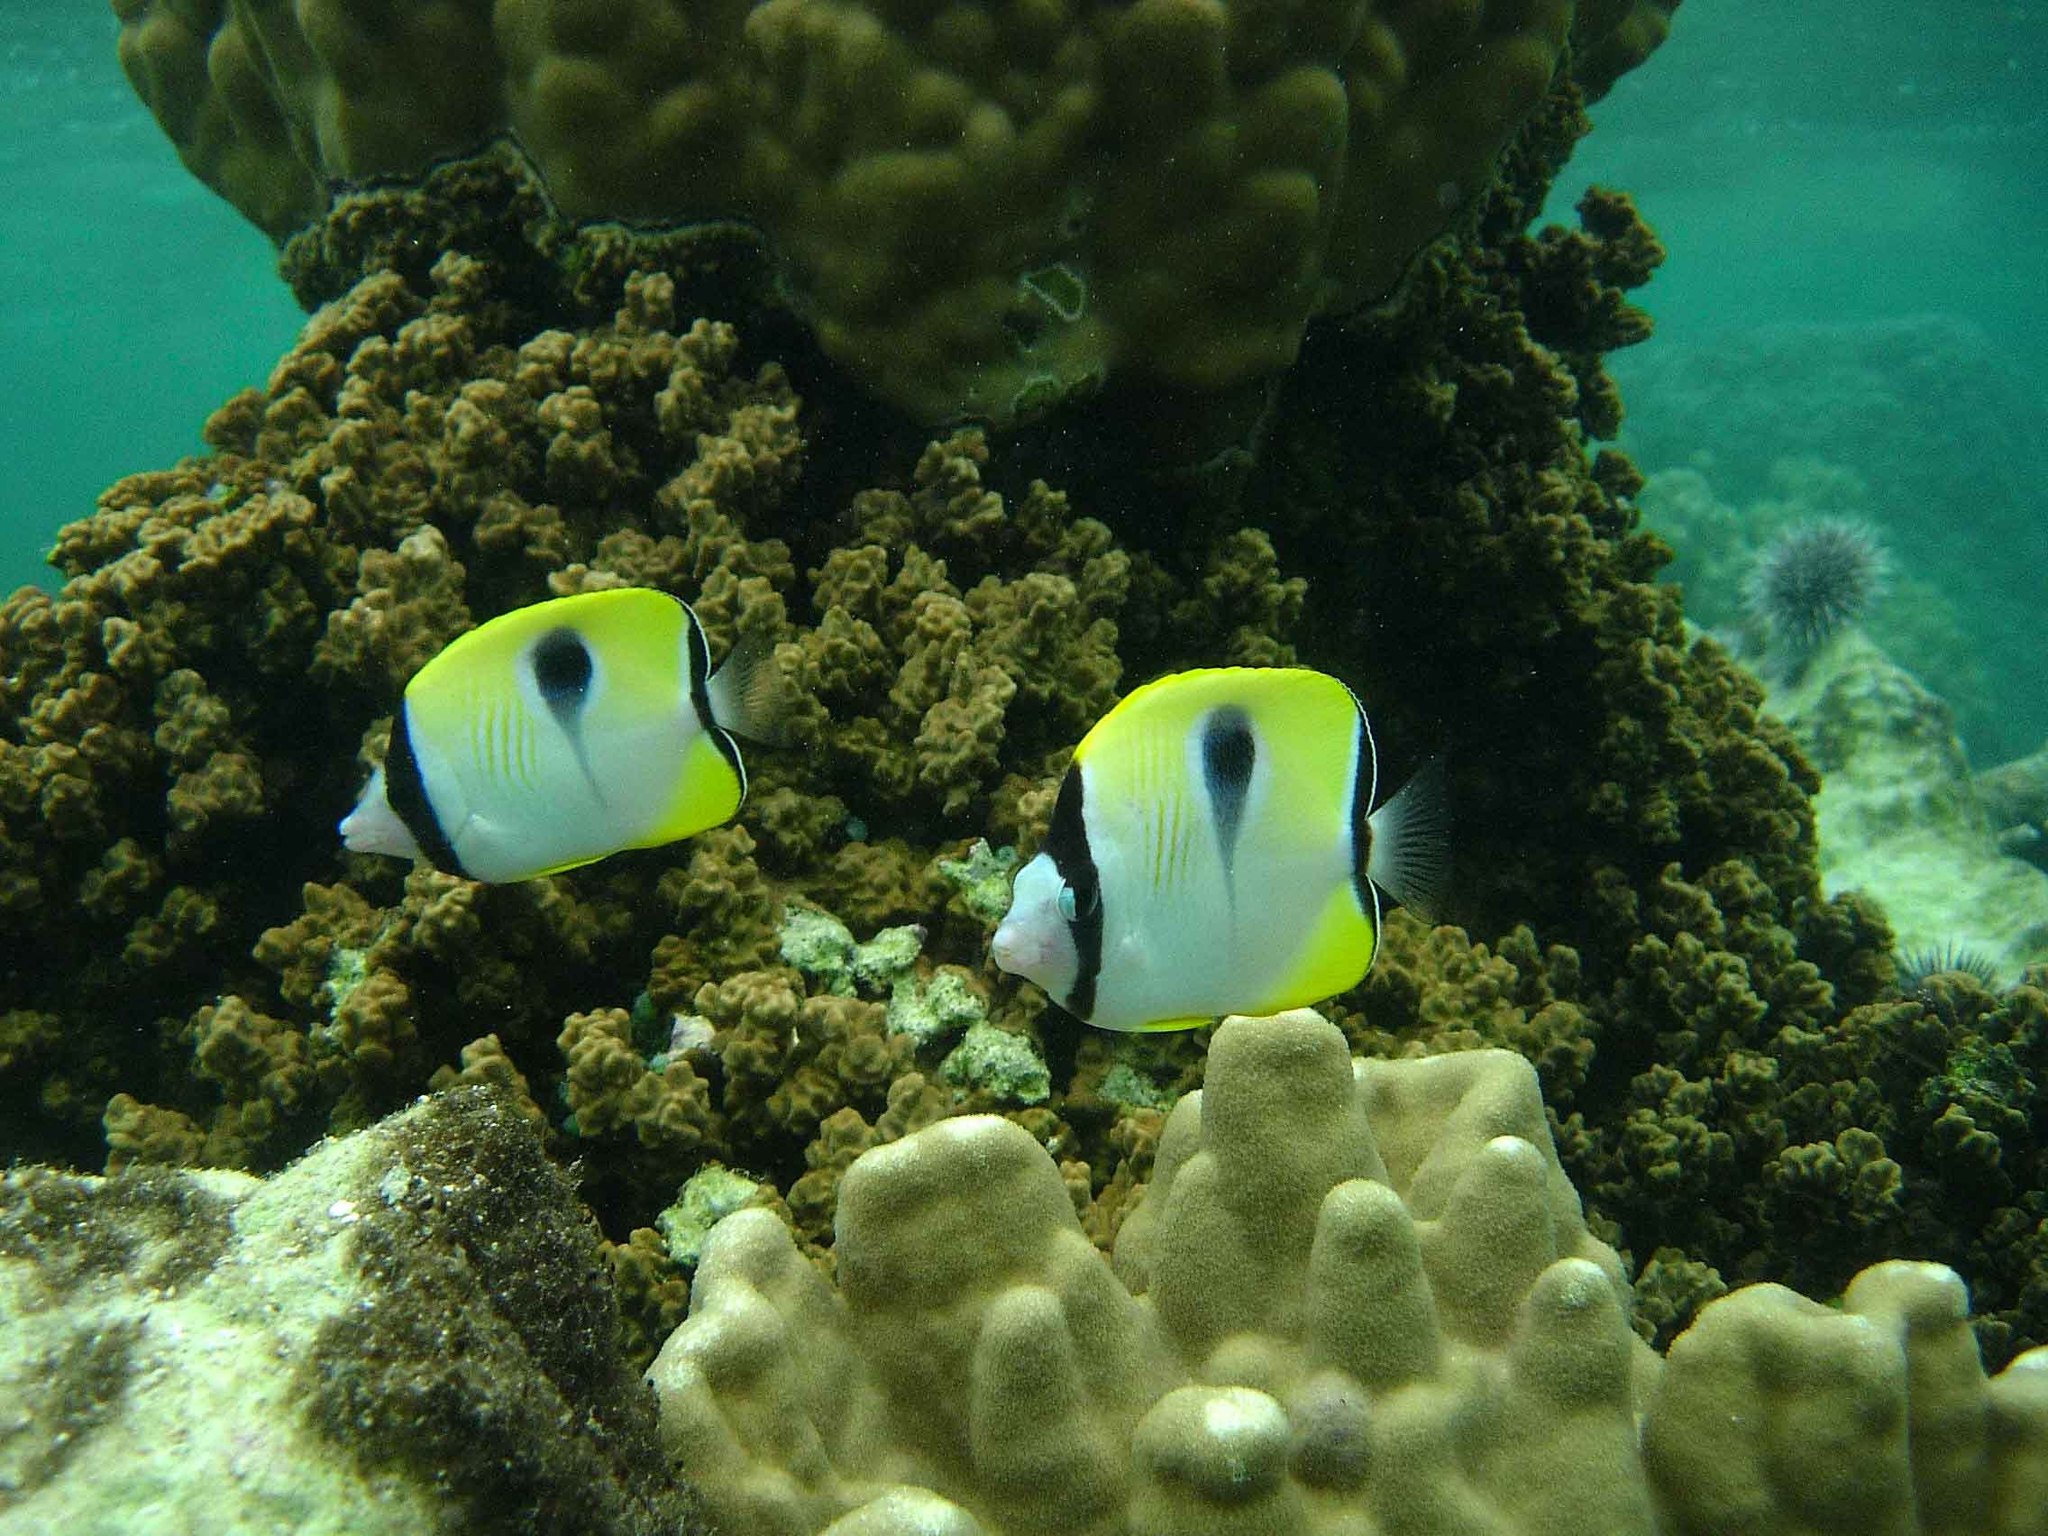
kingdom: Animalia
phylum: Chordata
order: Perciformes
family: Chaetodontidae
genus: Chaetodon
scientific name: Chaetodon unimaculatus
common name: Teardrop butterflyfish
